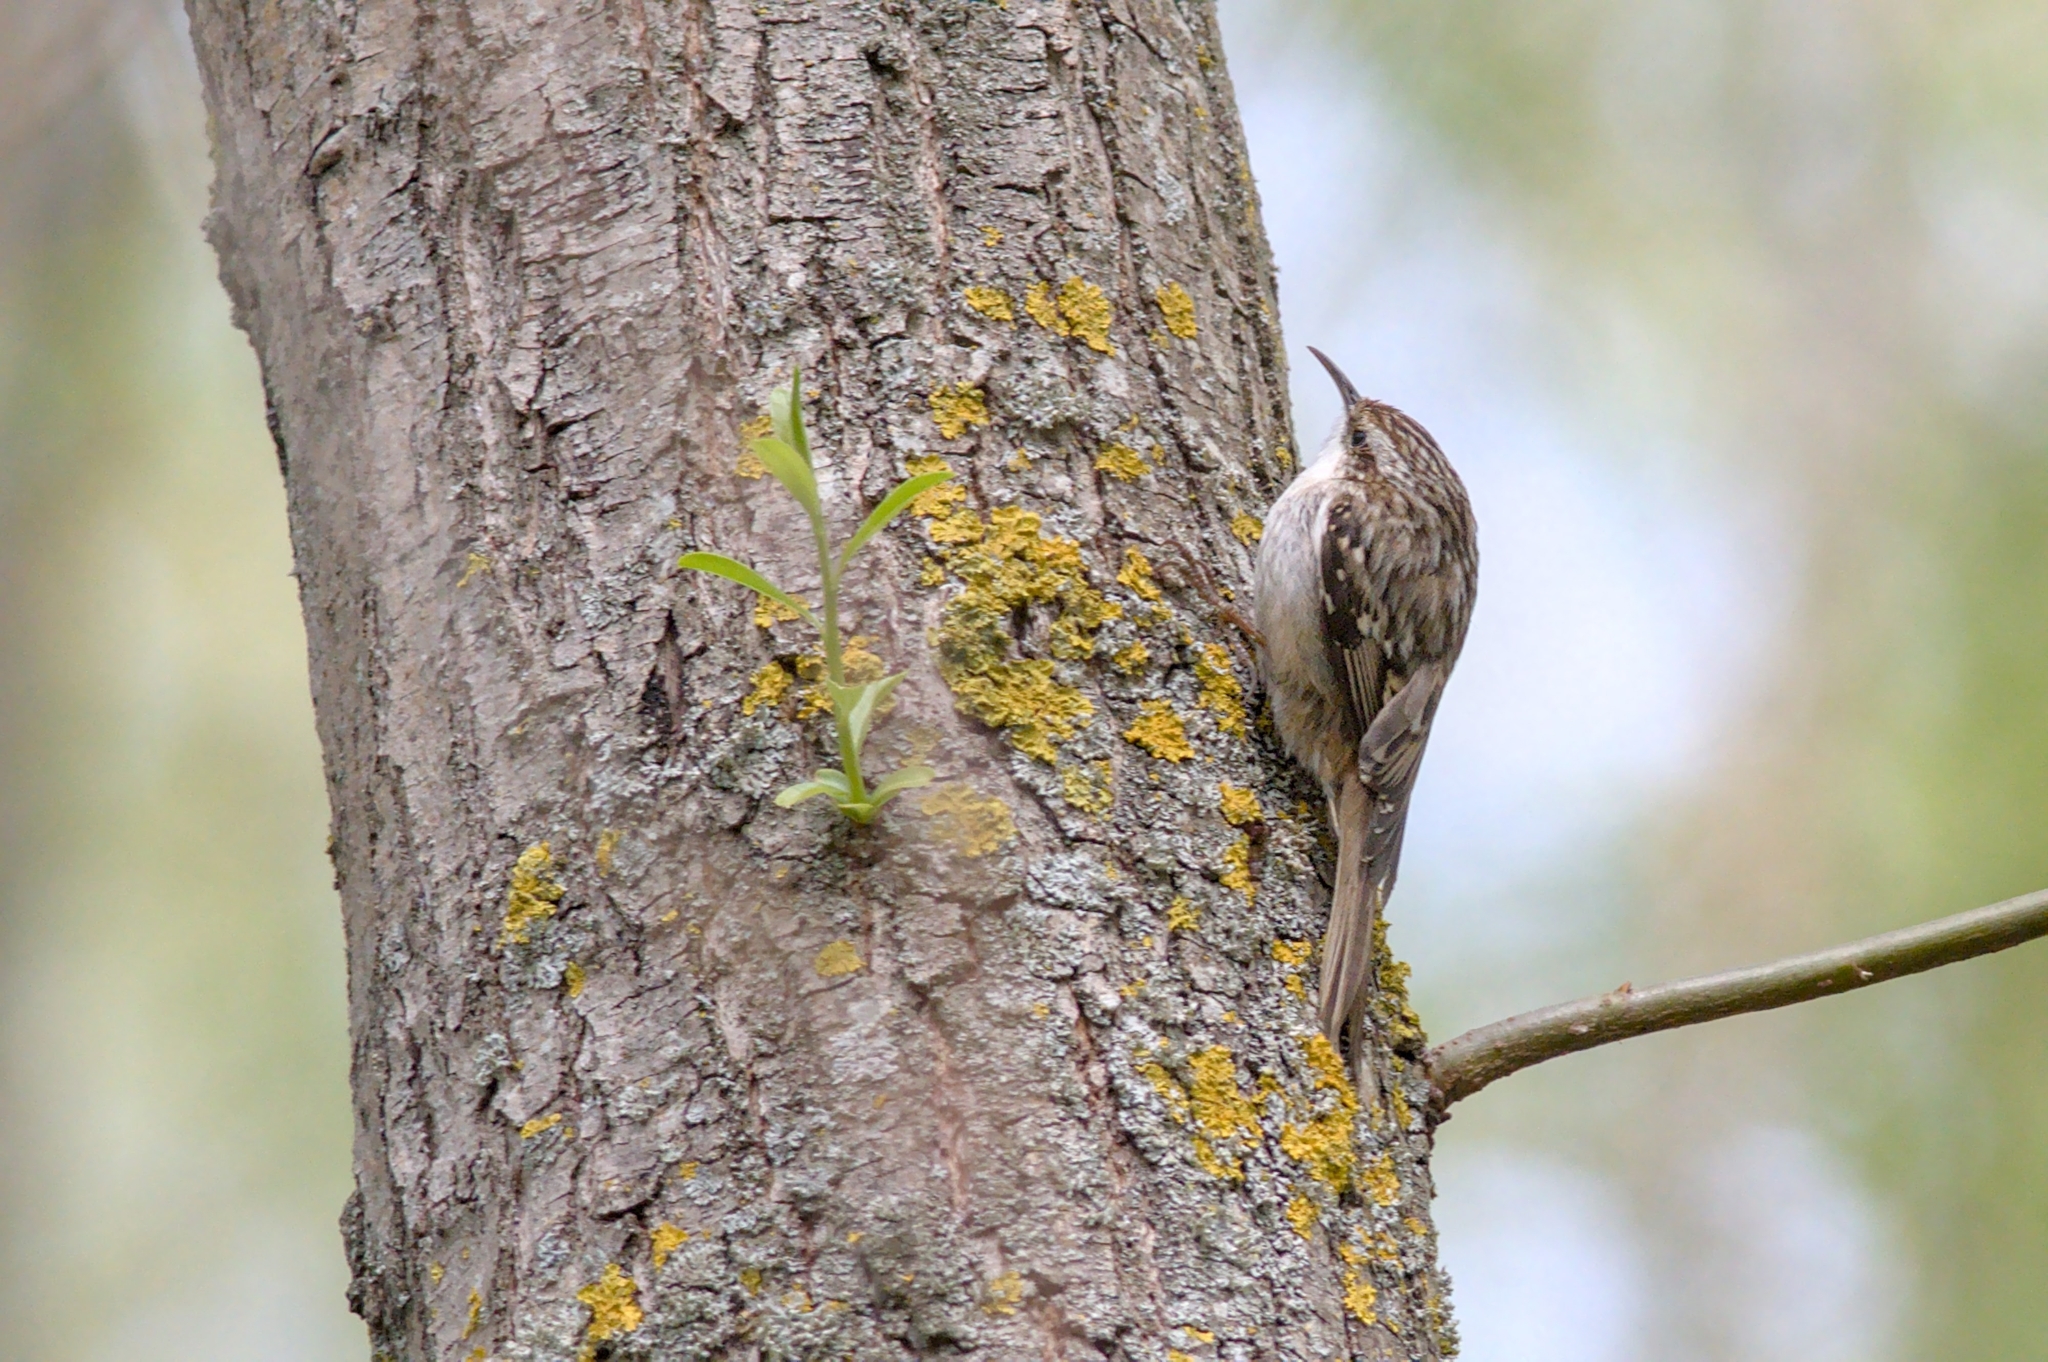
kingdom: Animalia
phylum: Chordata
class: Aves
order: Passeriformes
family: Certhiidae
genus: Certhia
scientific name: Certhia brachydactyla
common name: Short-toed treecreeper
